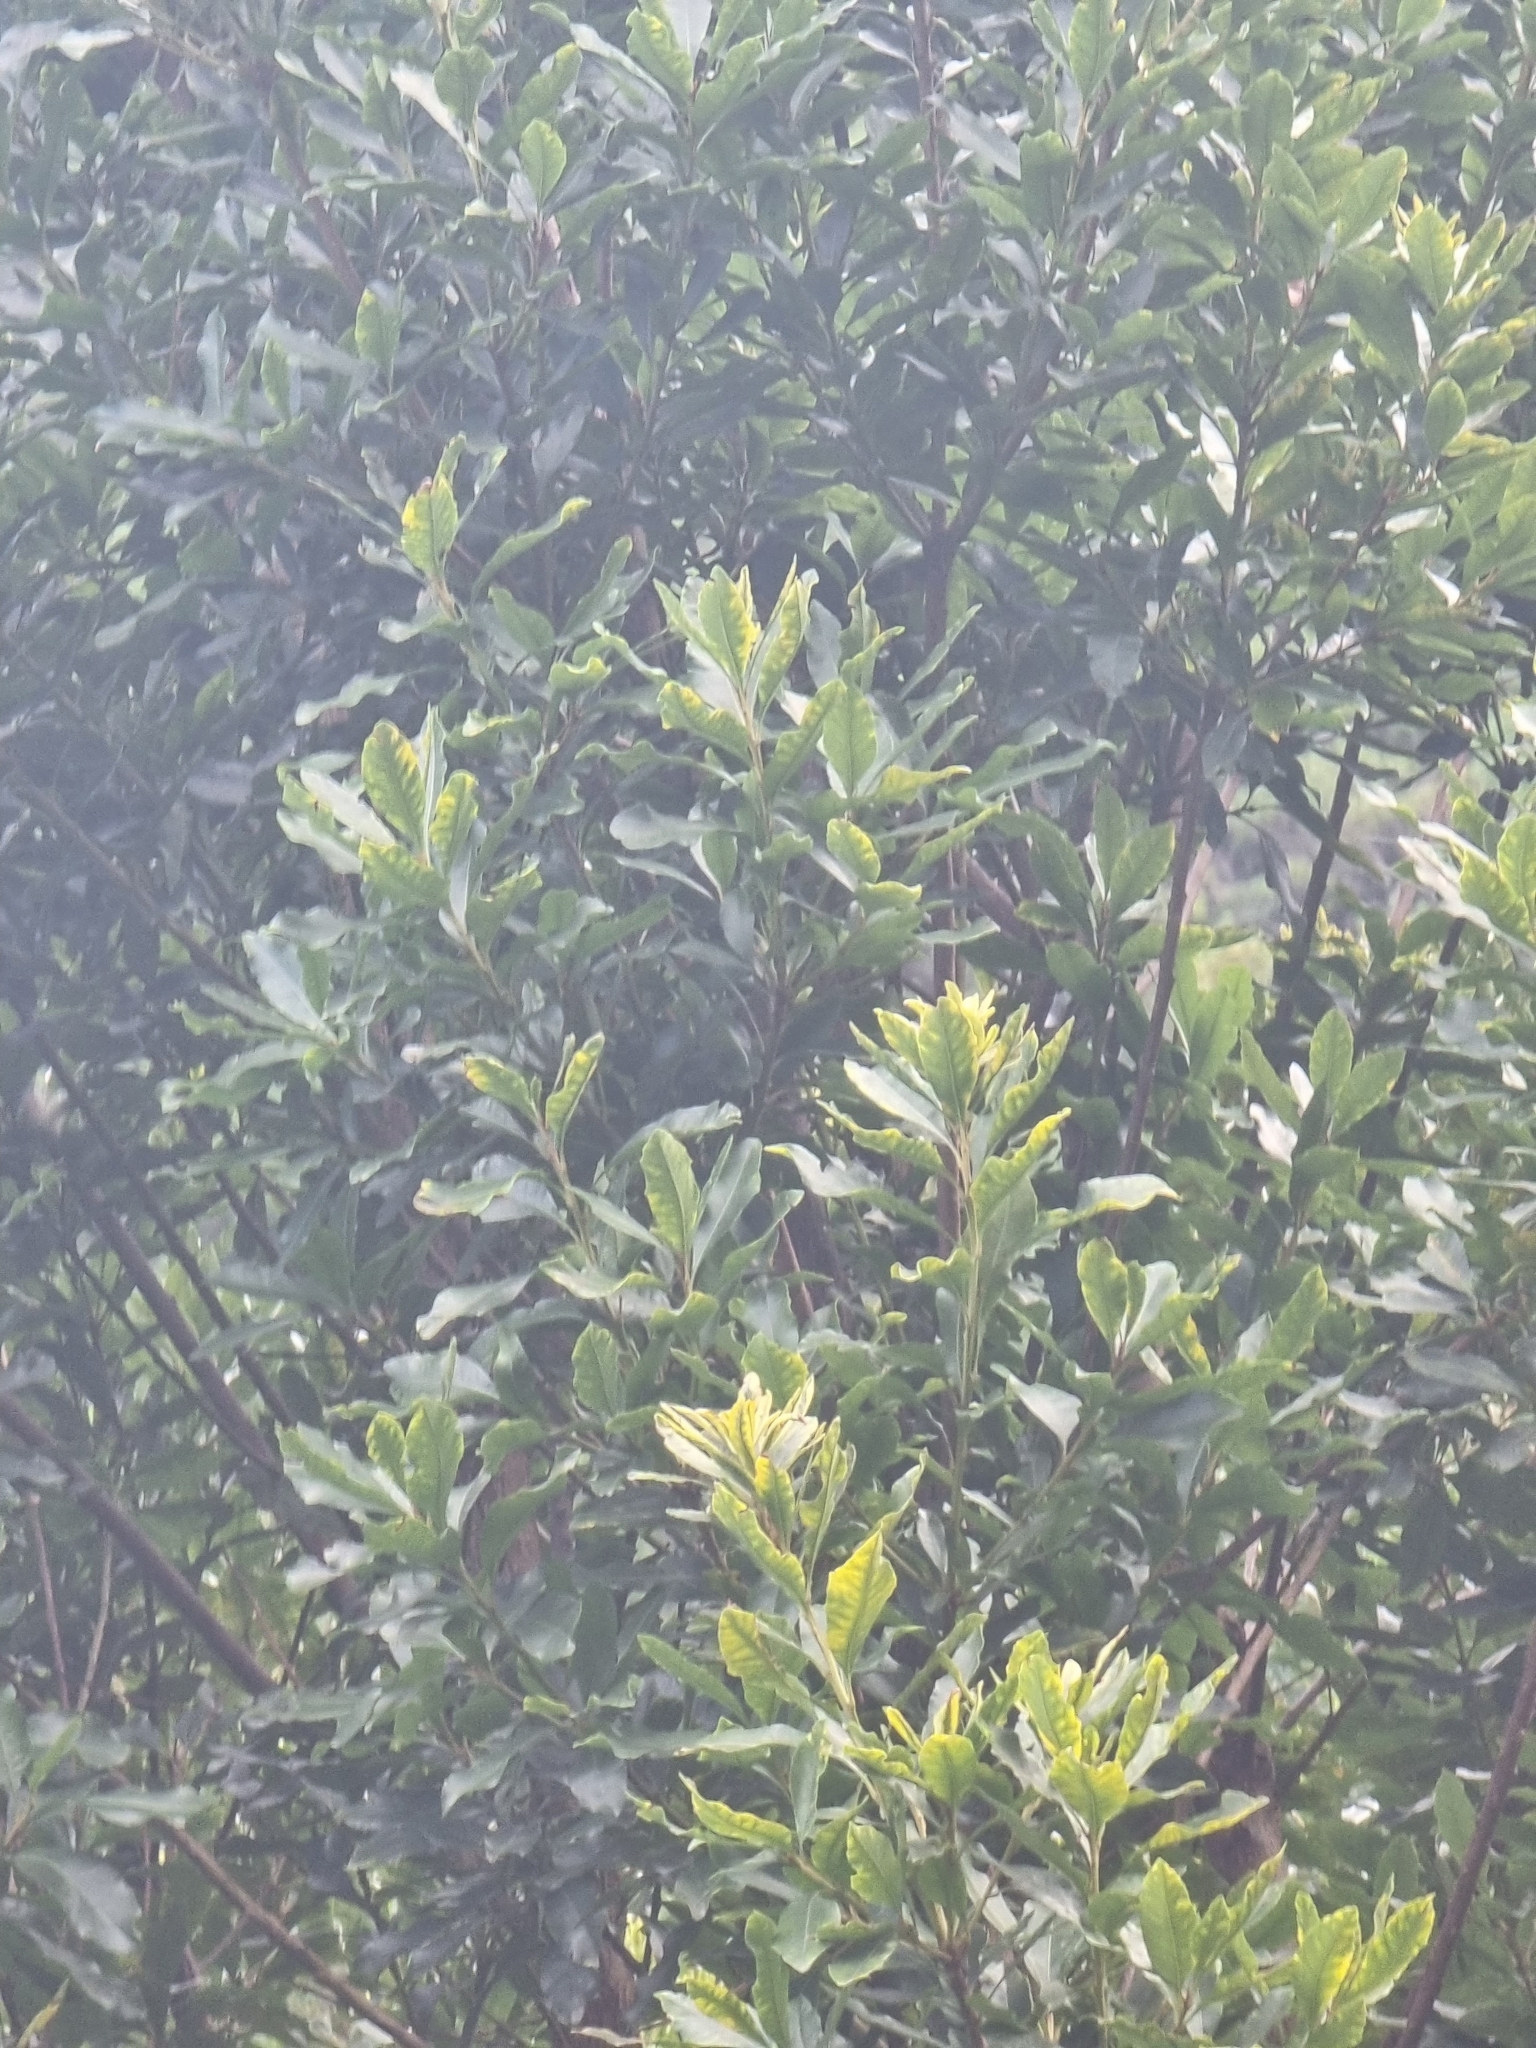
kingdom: Plantae
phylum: Tracheophyta
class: Magnoliopsida
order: Fagales
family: Myricaceae
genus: Morella
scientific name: Morella faya
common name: Firetree
